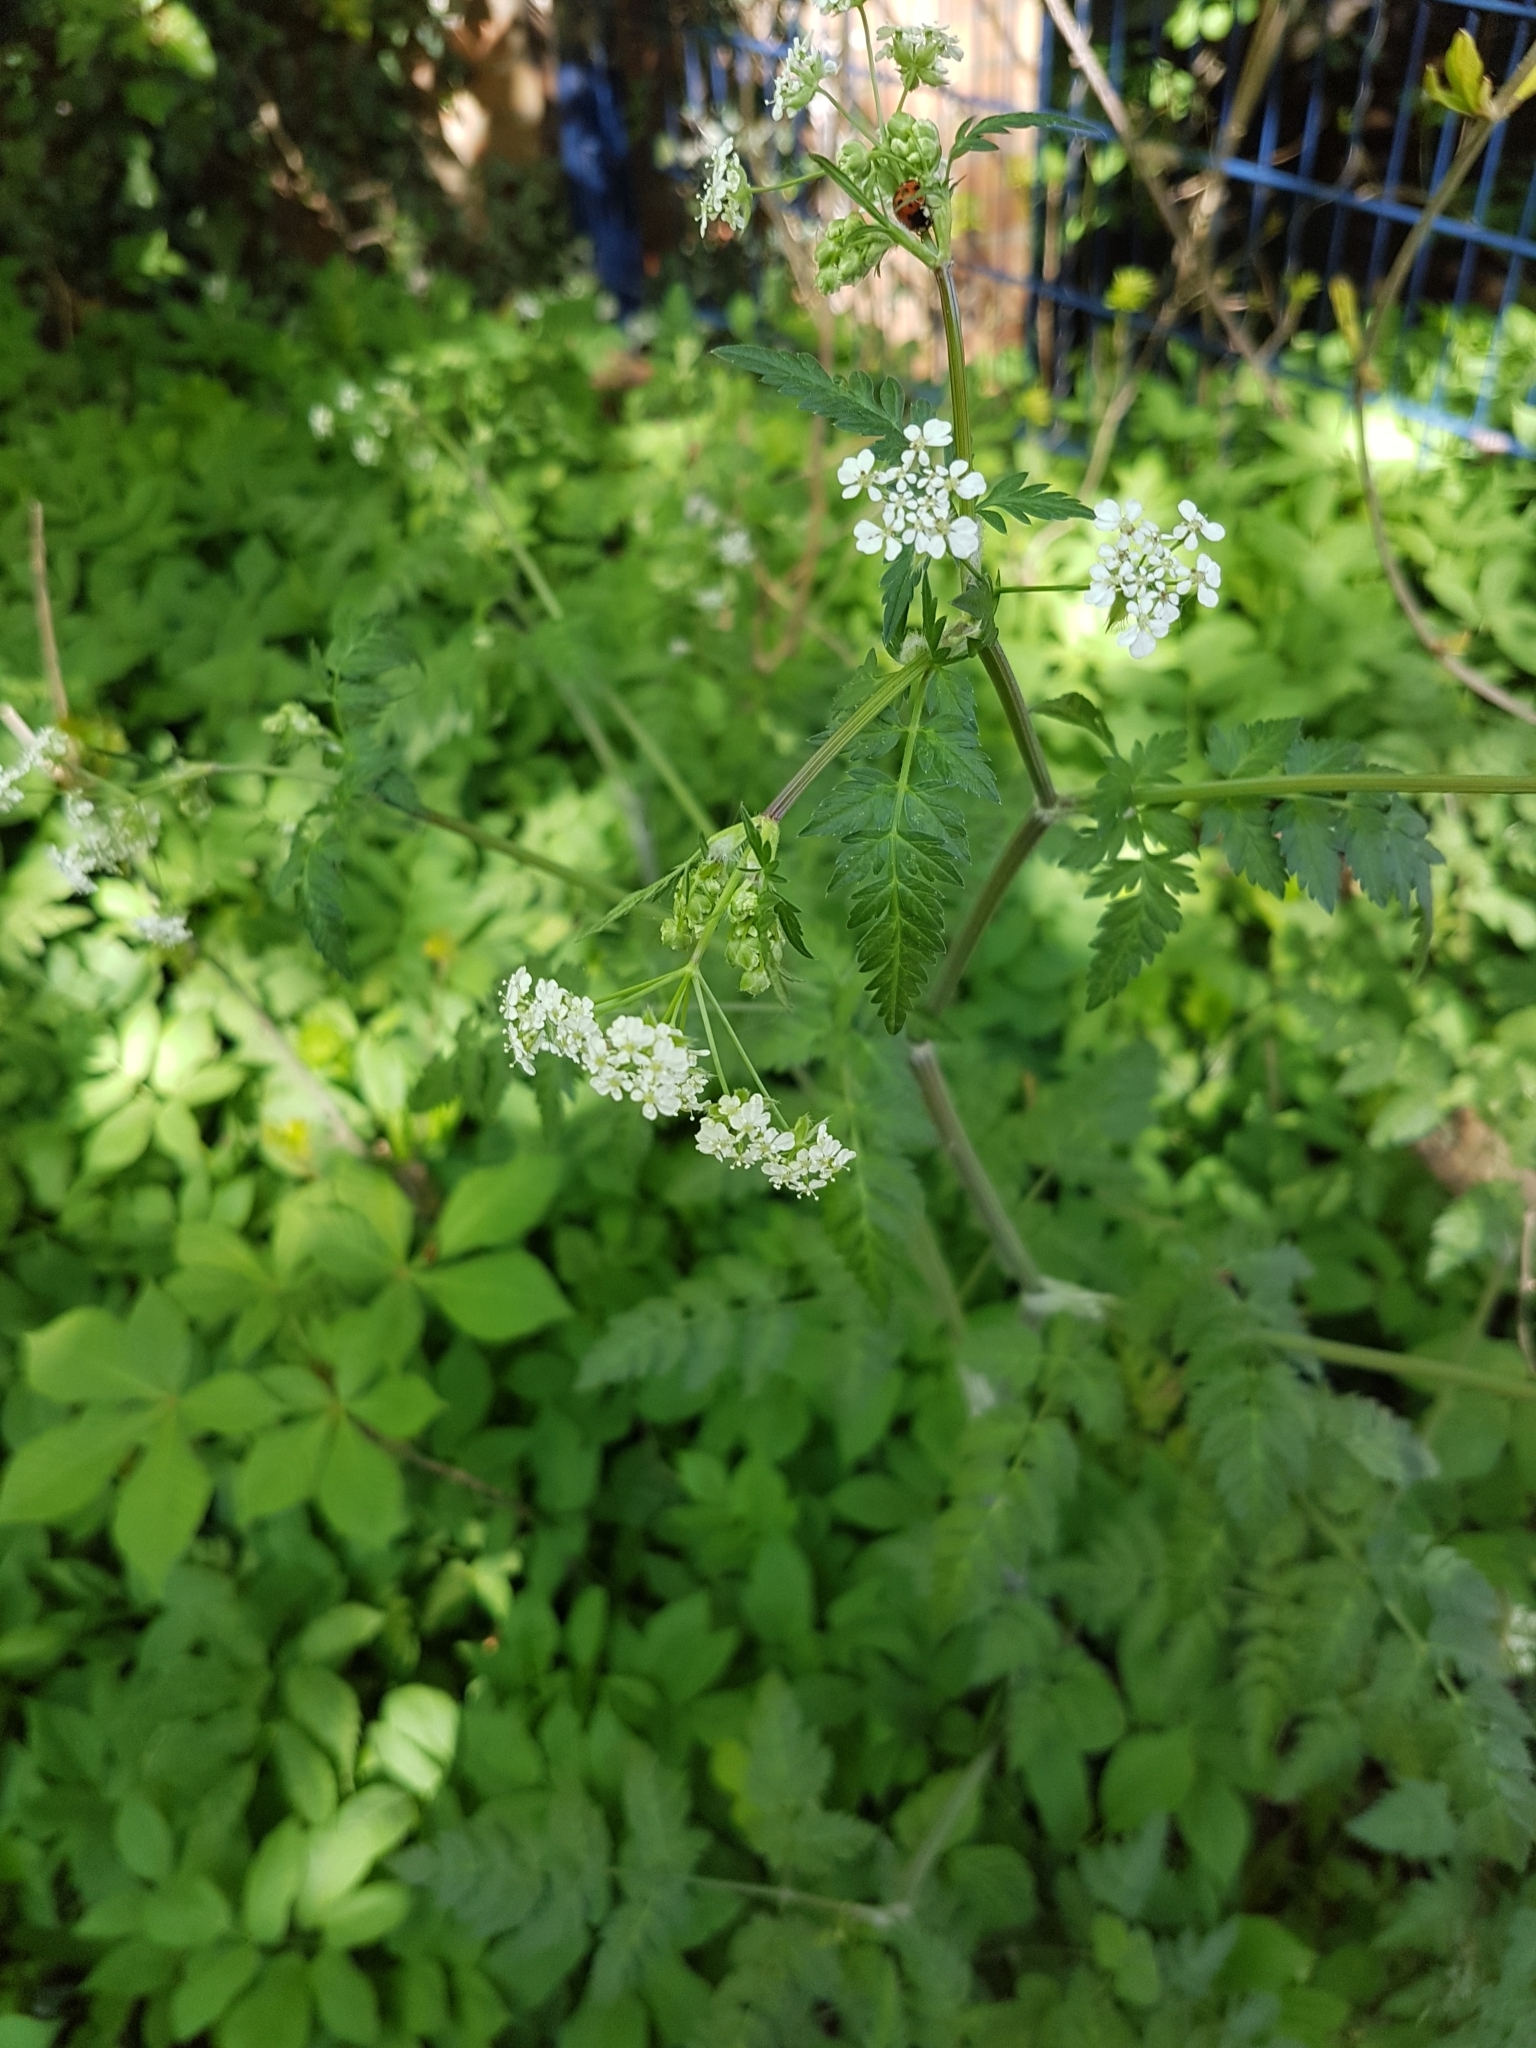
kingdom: Plantae
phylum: Tracheophyta
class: Magnoliopsida
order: Apiales
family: Apiaceae
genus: Anthriscus
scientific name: Anthriscus sylvestris
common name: Cow parsley
